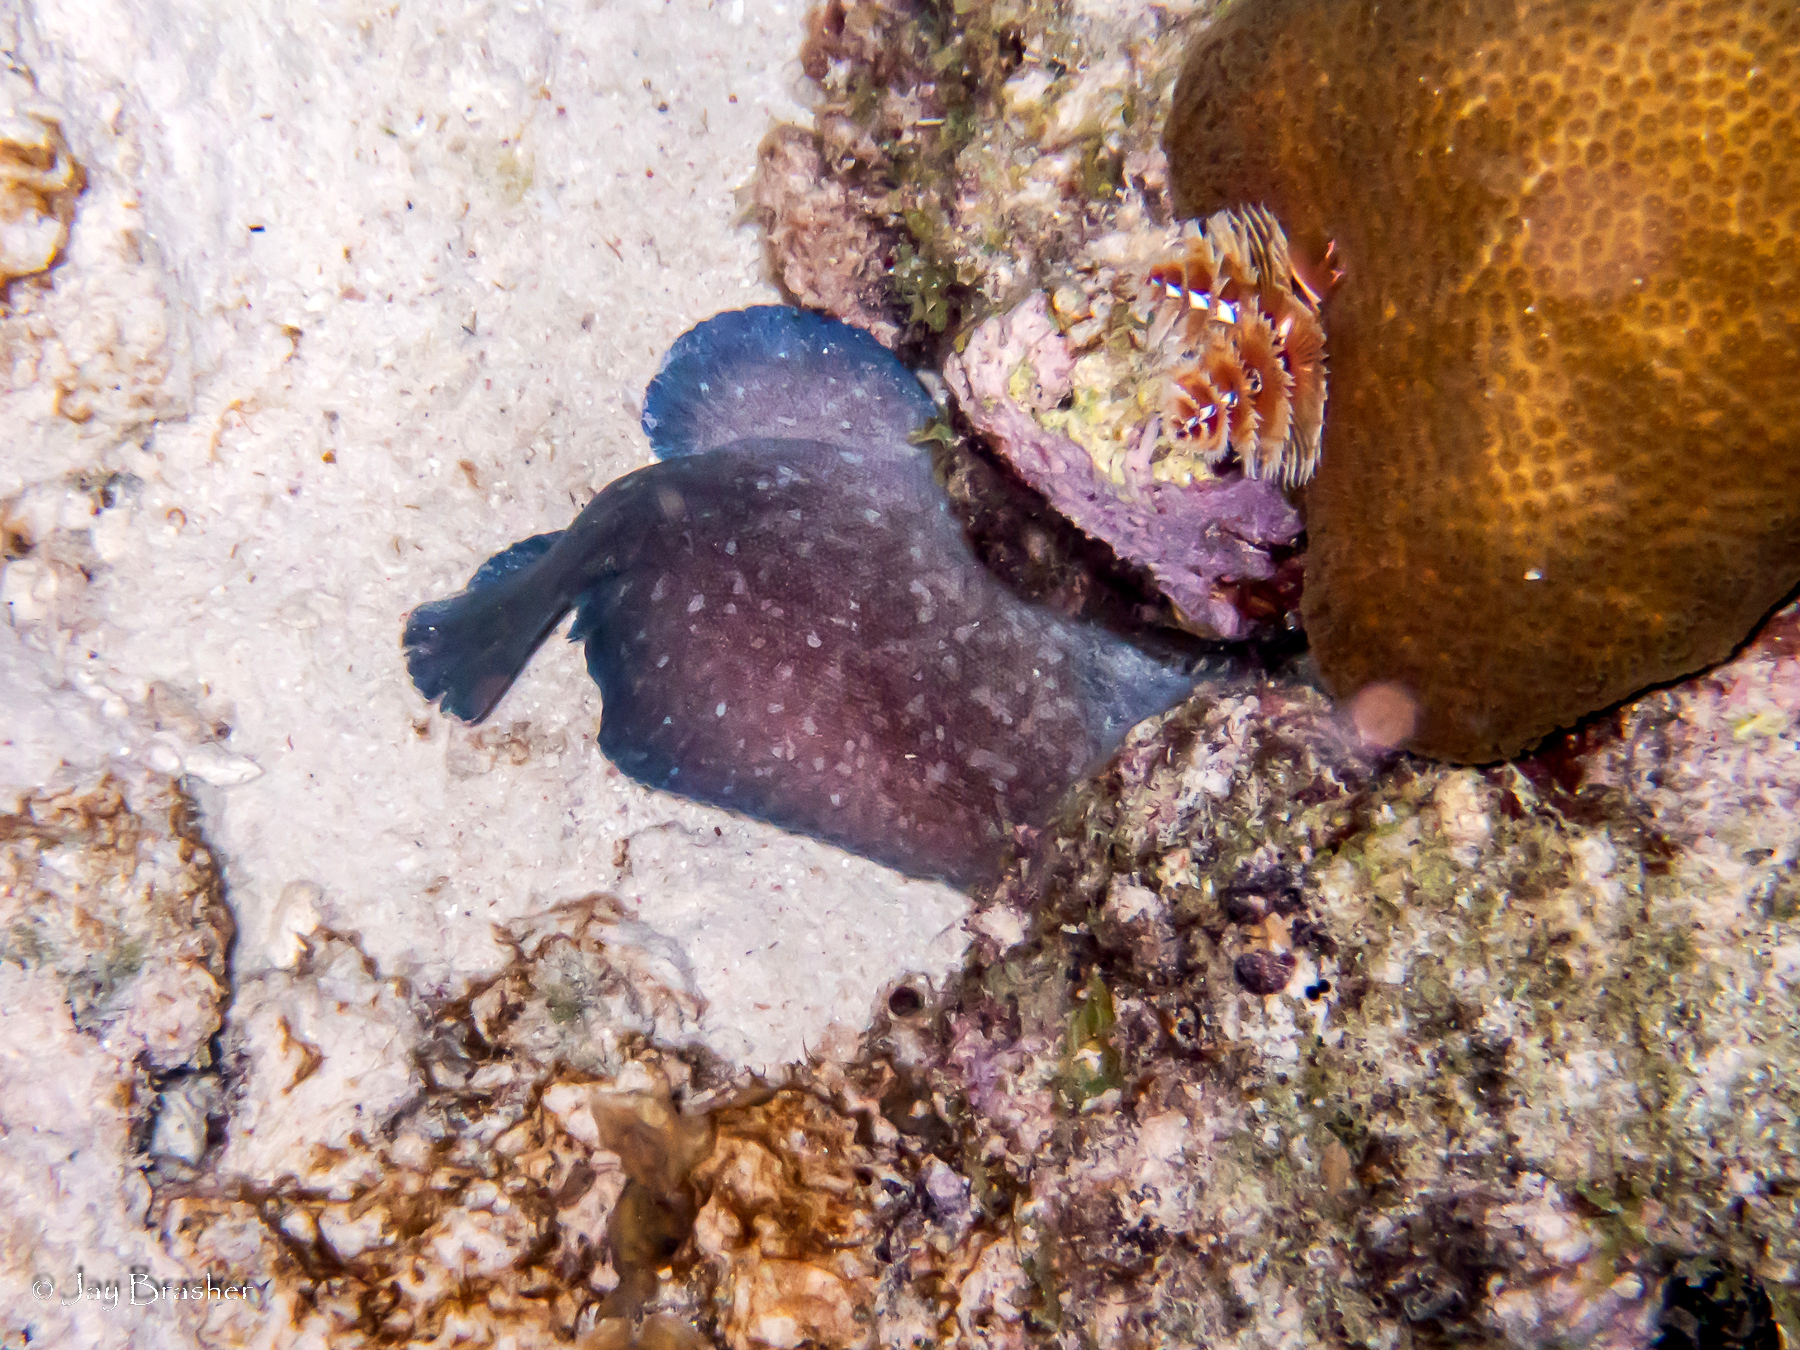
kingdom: Animalia
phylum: Chordata
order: Perciformes
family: Serranidae
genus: Rypticus
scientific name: Rypticus saponaceus
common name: Soapfish
